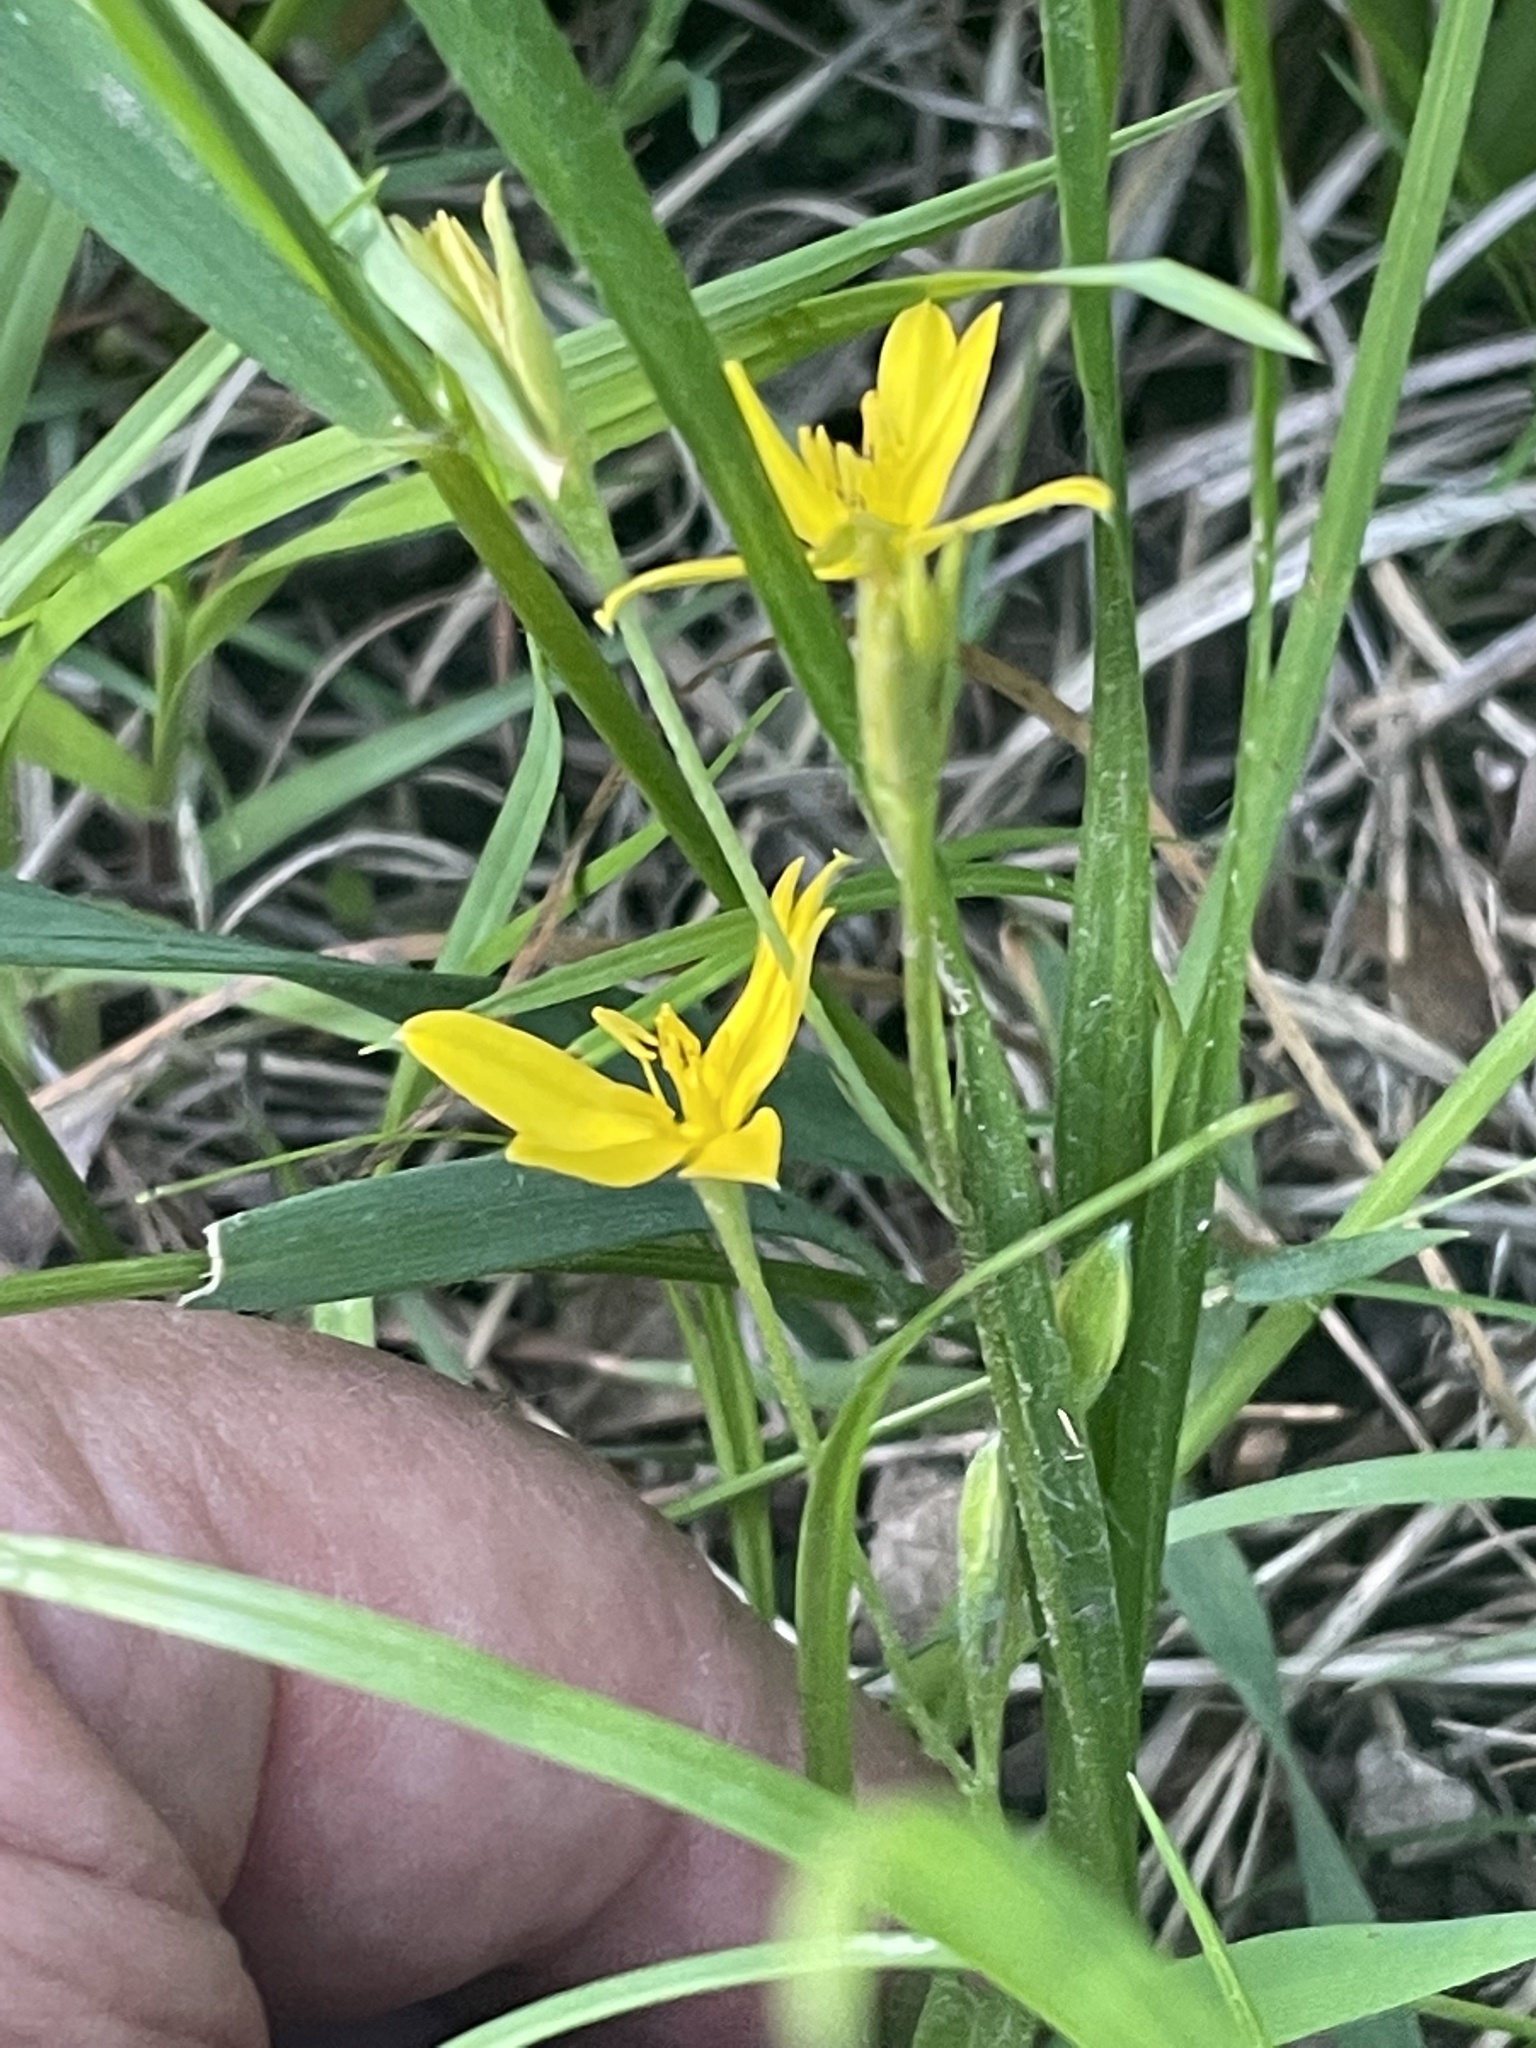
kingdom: Plantae
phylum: Tracheophyta
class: Liliopsida
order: Asparagales
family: Hypoxidaceae
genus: Hypoxis
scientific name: Hypoxis hirsuta
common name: Common goldstar
